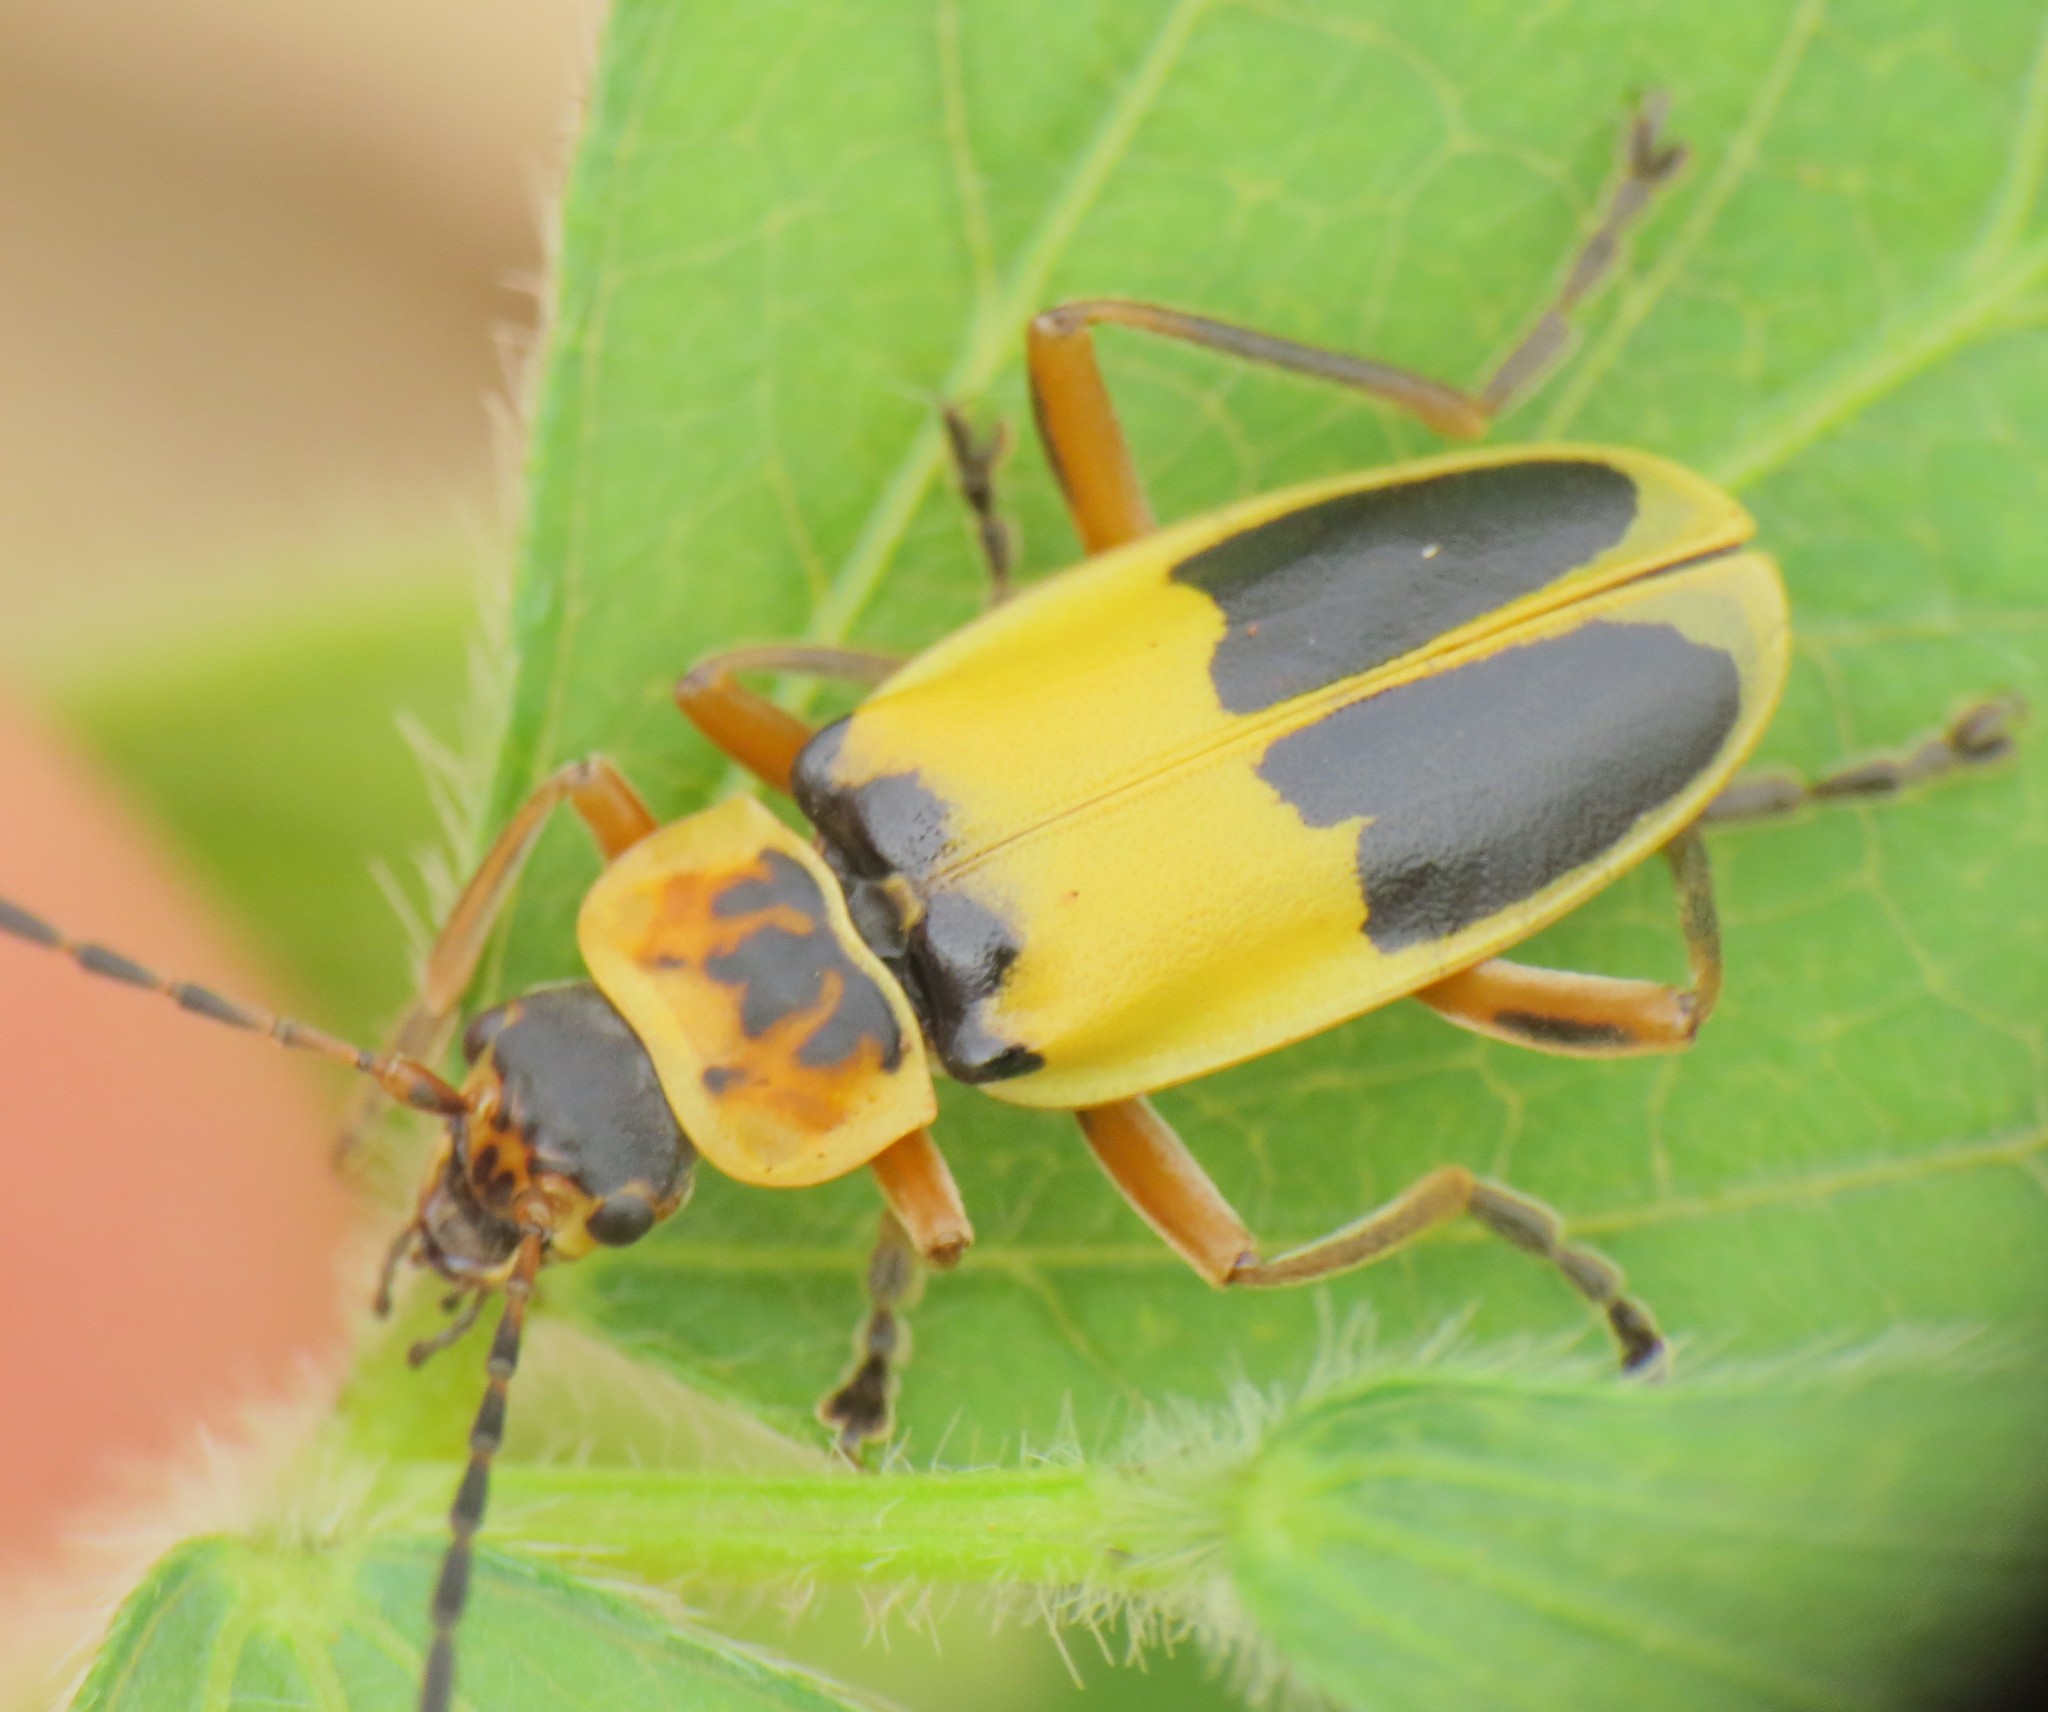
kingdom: Animalia
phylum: Arthropoda
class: Insecta
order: Coleoptera
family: Cantharidae
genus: Chauliognathus
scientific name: Chauliognathus
